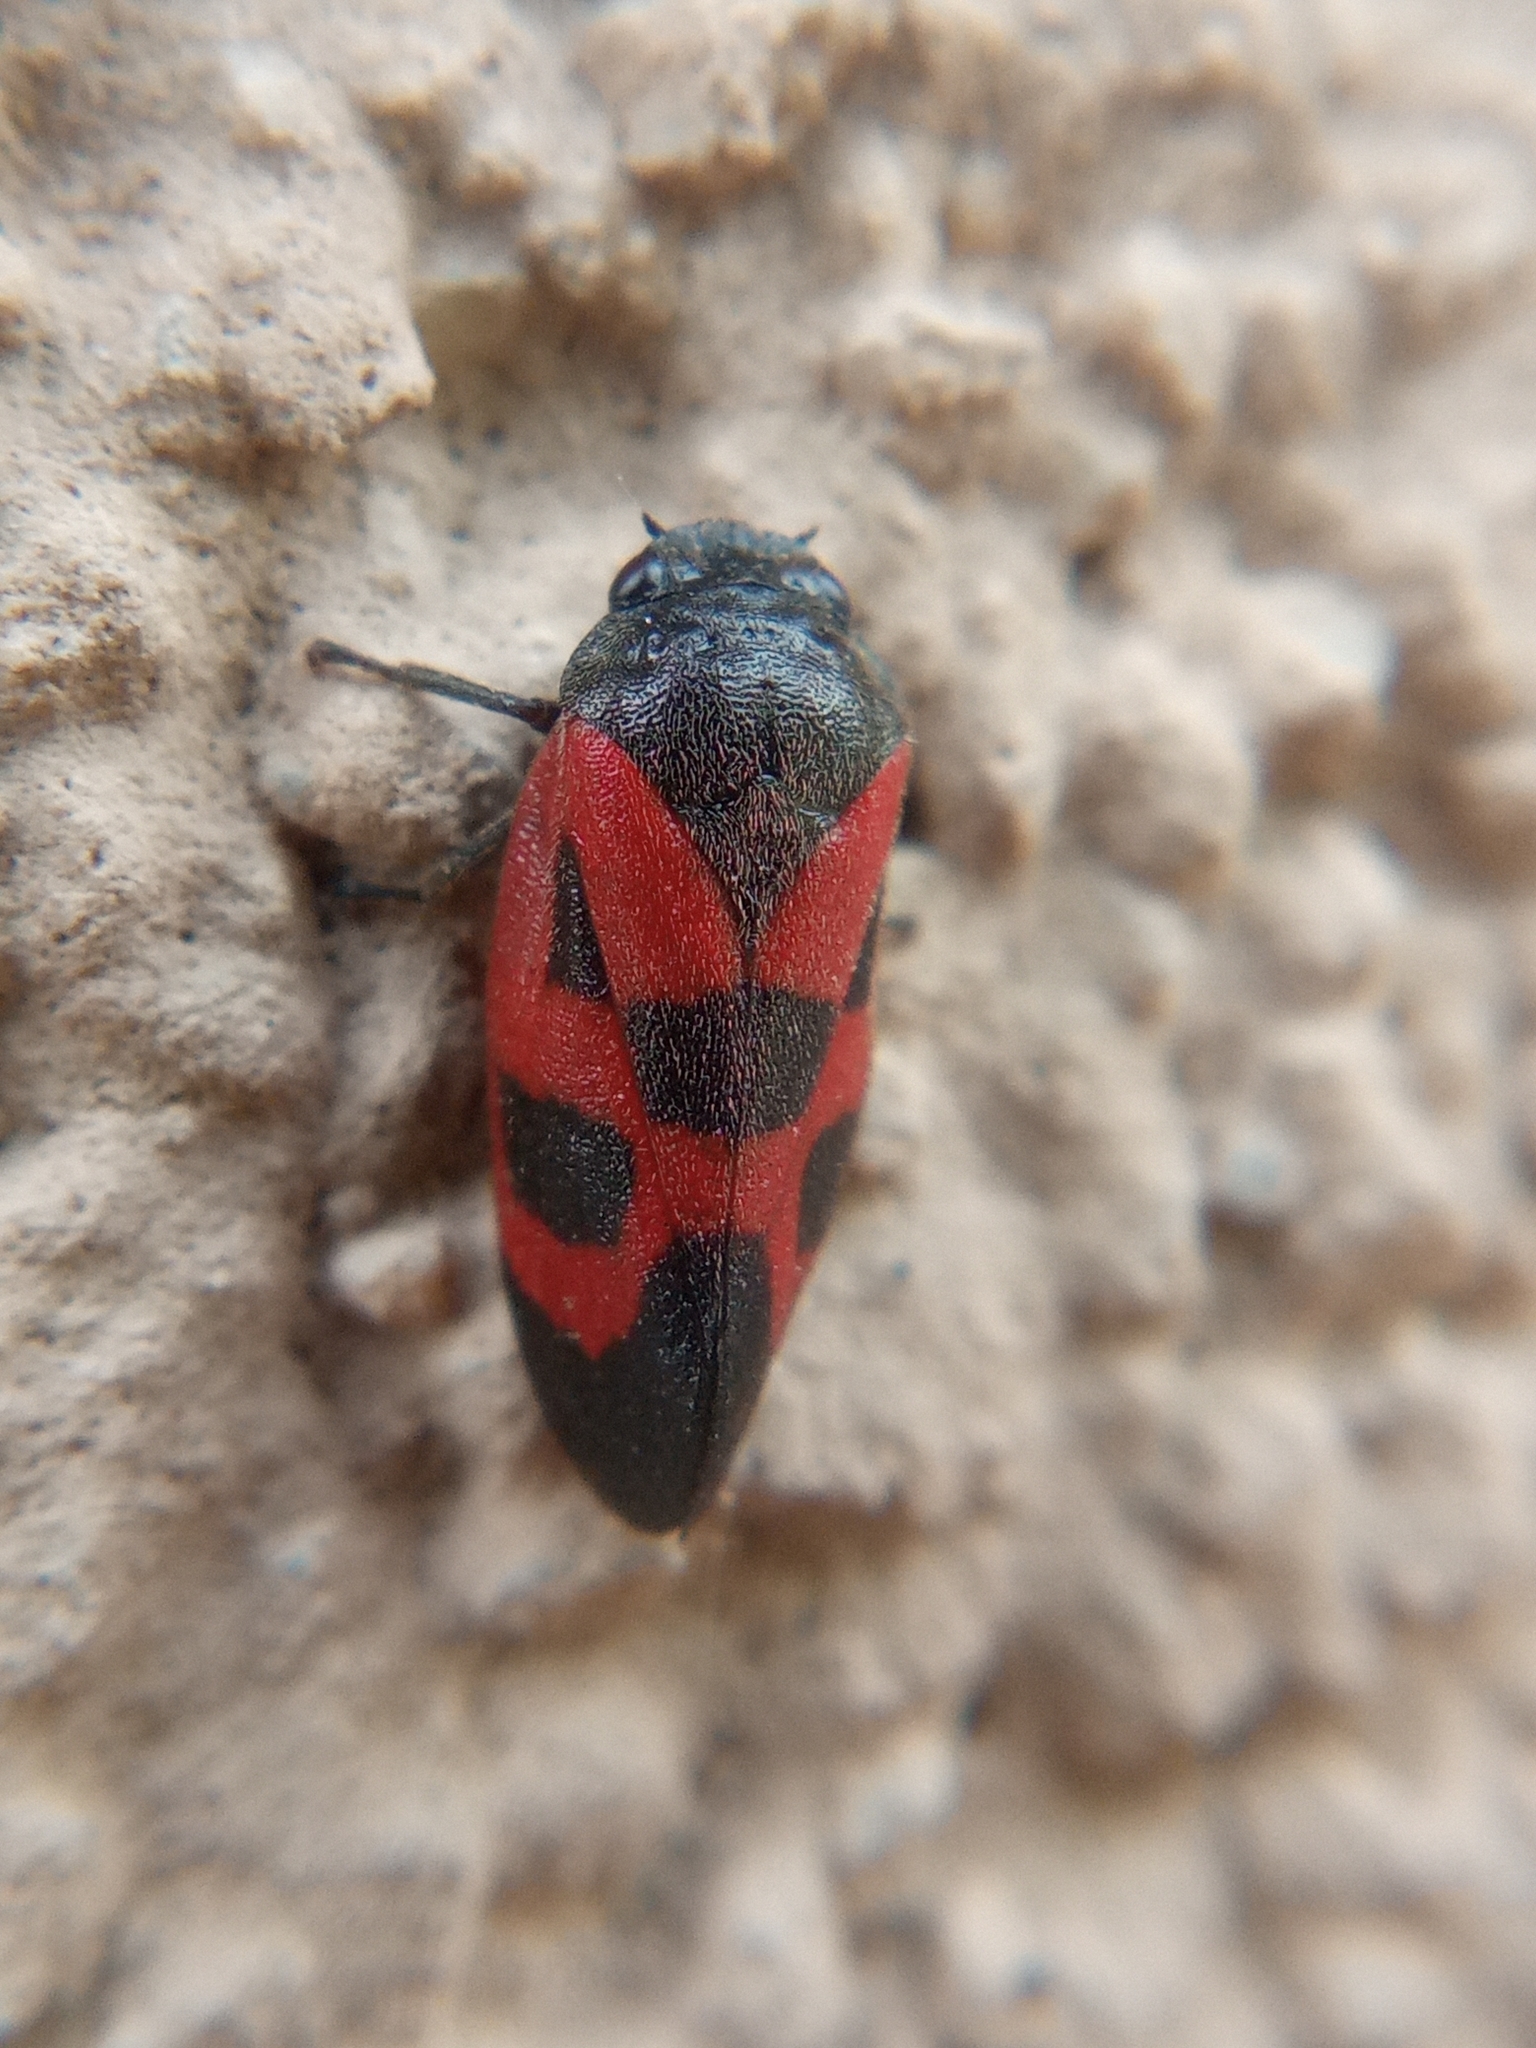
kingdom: Animalia
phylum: Arthropoda
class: Insecta
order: Hemiptera
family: Cercopidae
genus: Haematoloma
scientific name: Haematoloma dorsata
